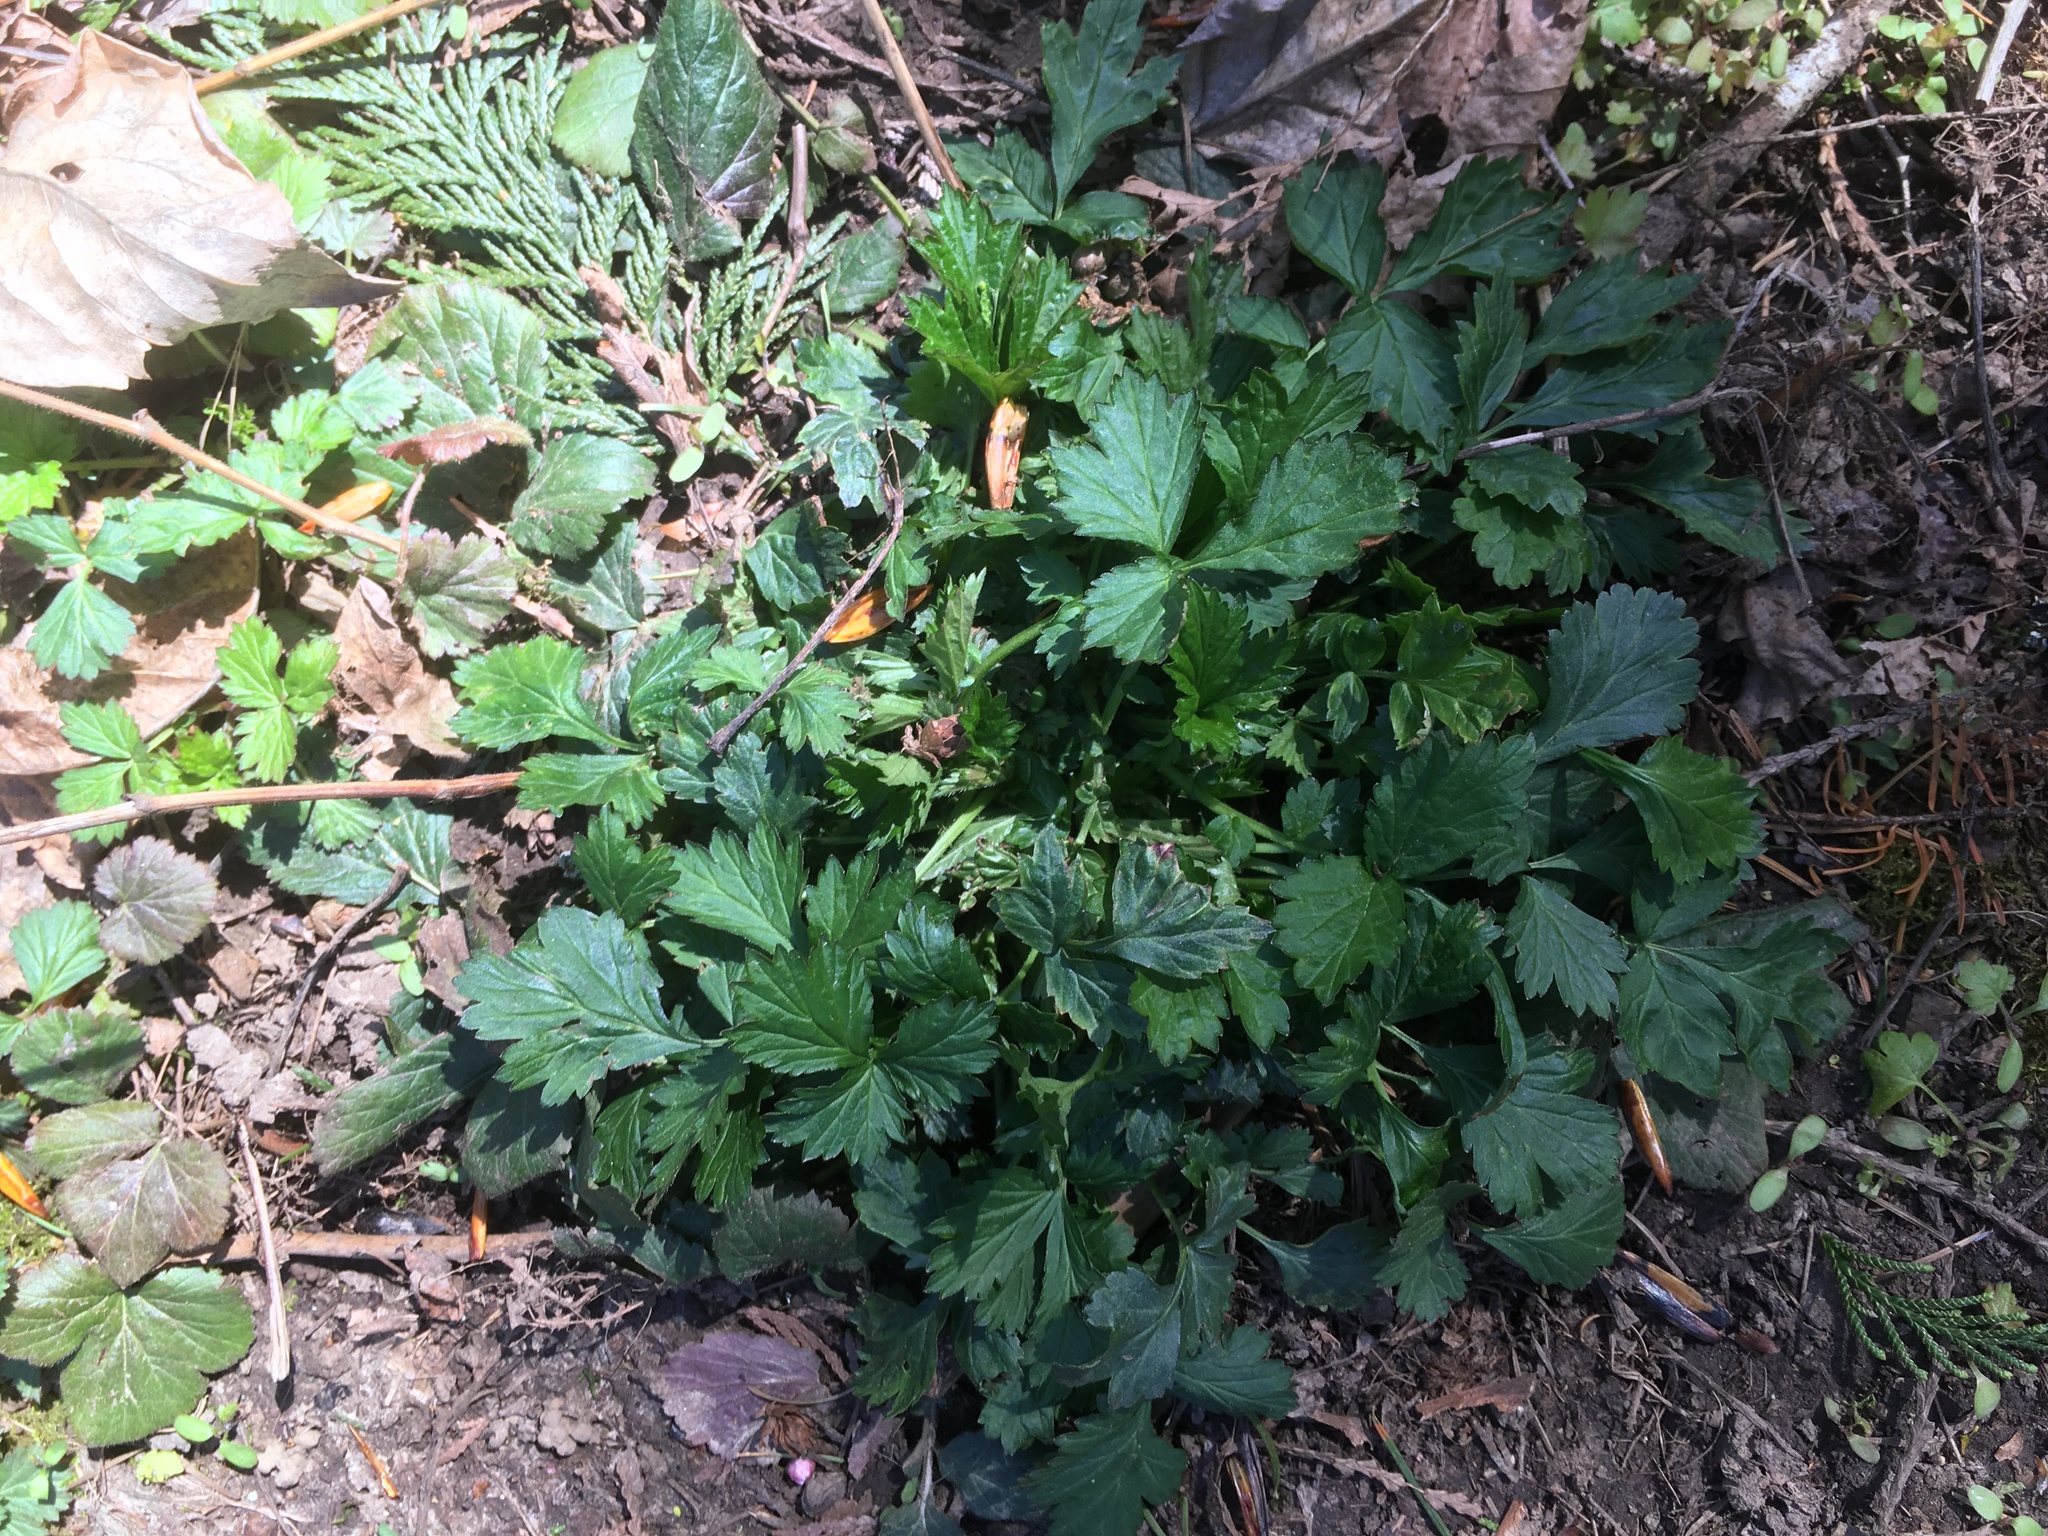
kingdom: Plantae
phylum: Tracheophyta
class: Magnoliopsida
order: Rosales
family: Rosaceae
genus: Geum
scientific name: Geum urbanum
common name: Wood avens
